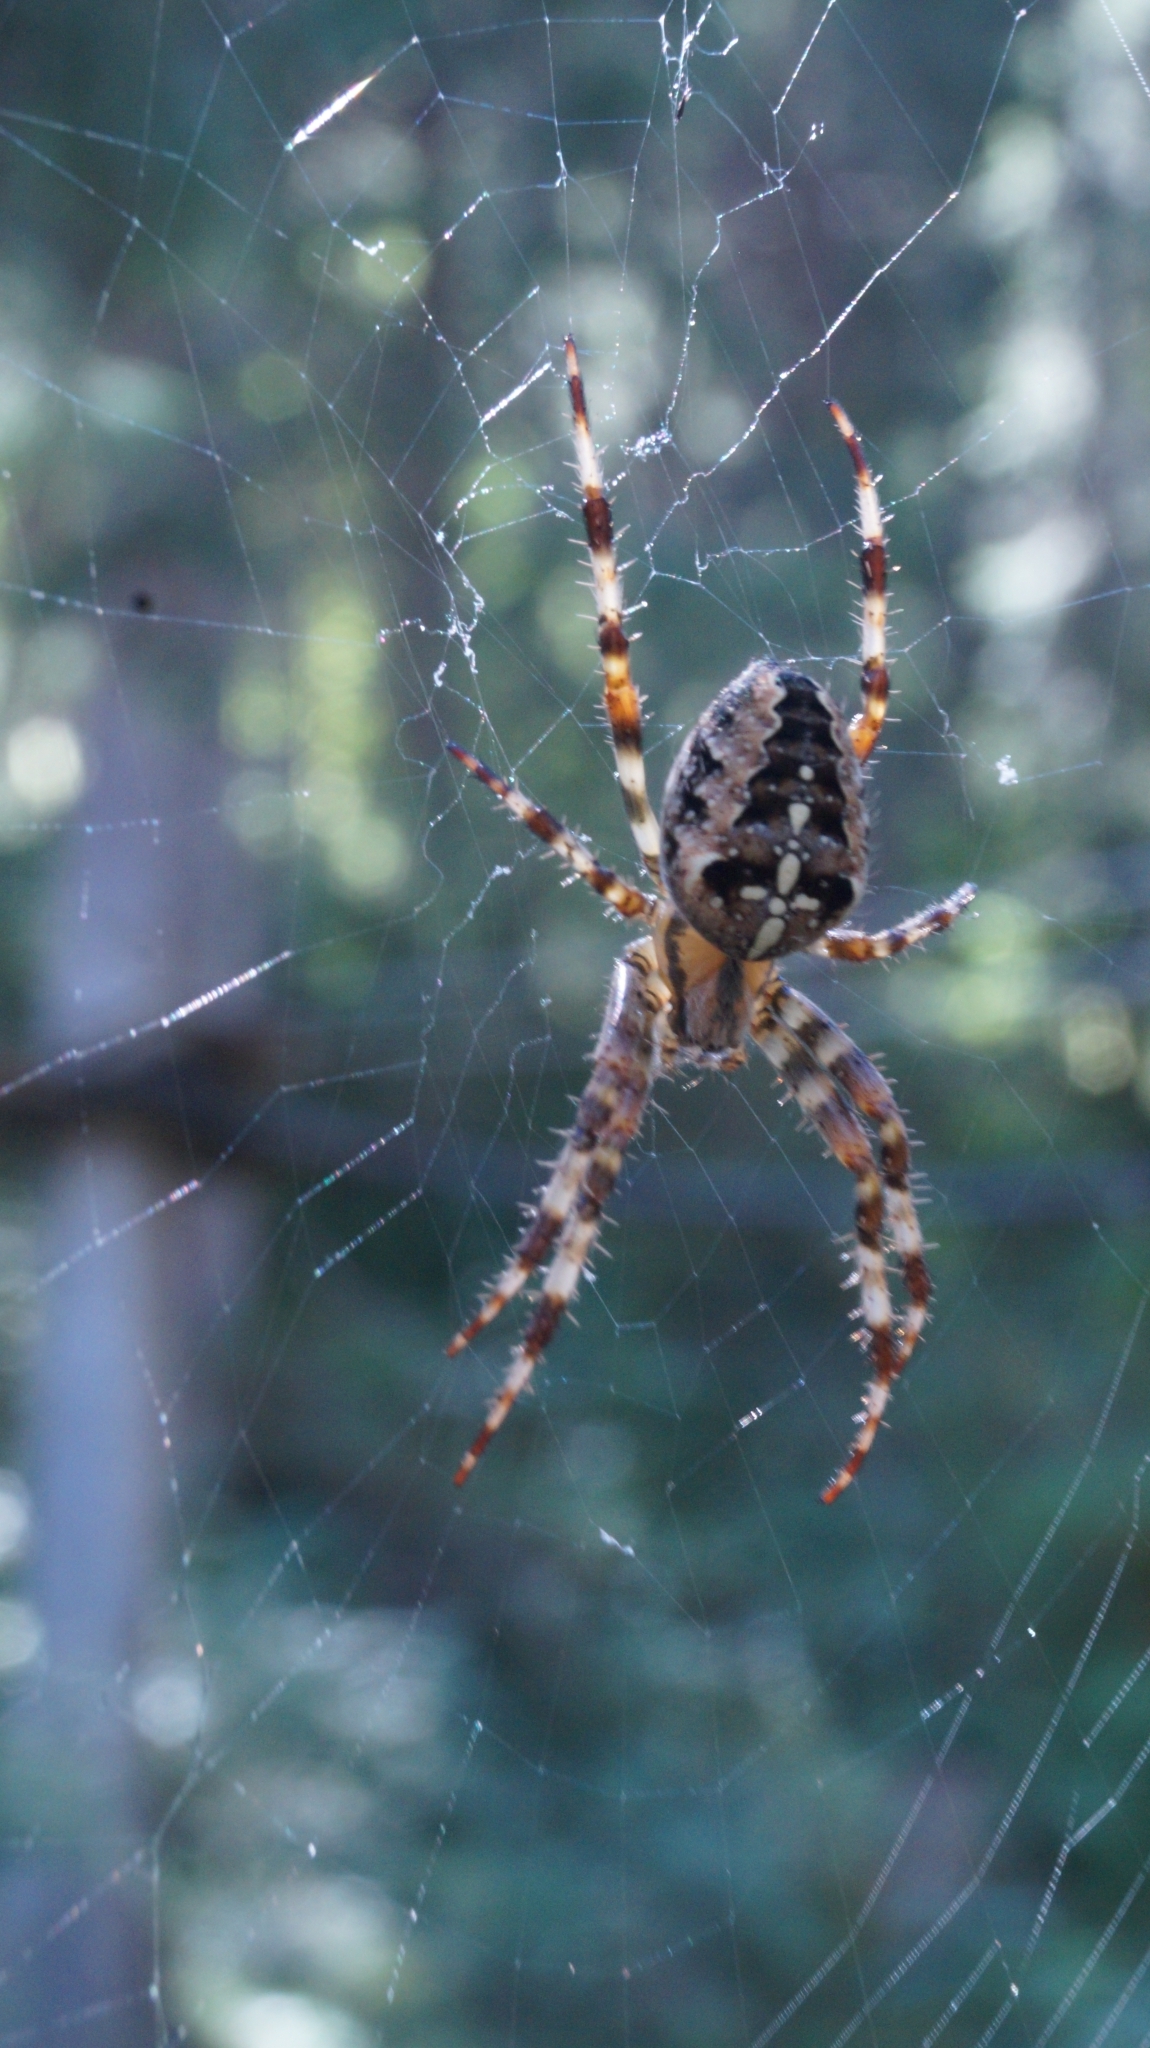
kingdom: Animalia
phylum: Arthropoda
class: Arachnida
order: Araneae
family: Araneidae
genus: Araneus
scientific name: Araneus diadematus
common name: Cross orbweaver
